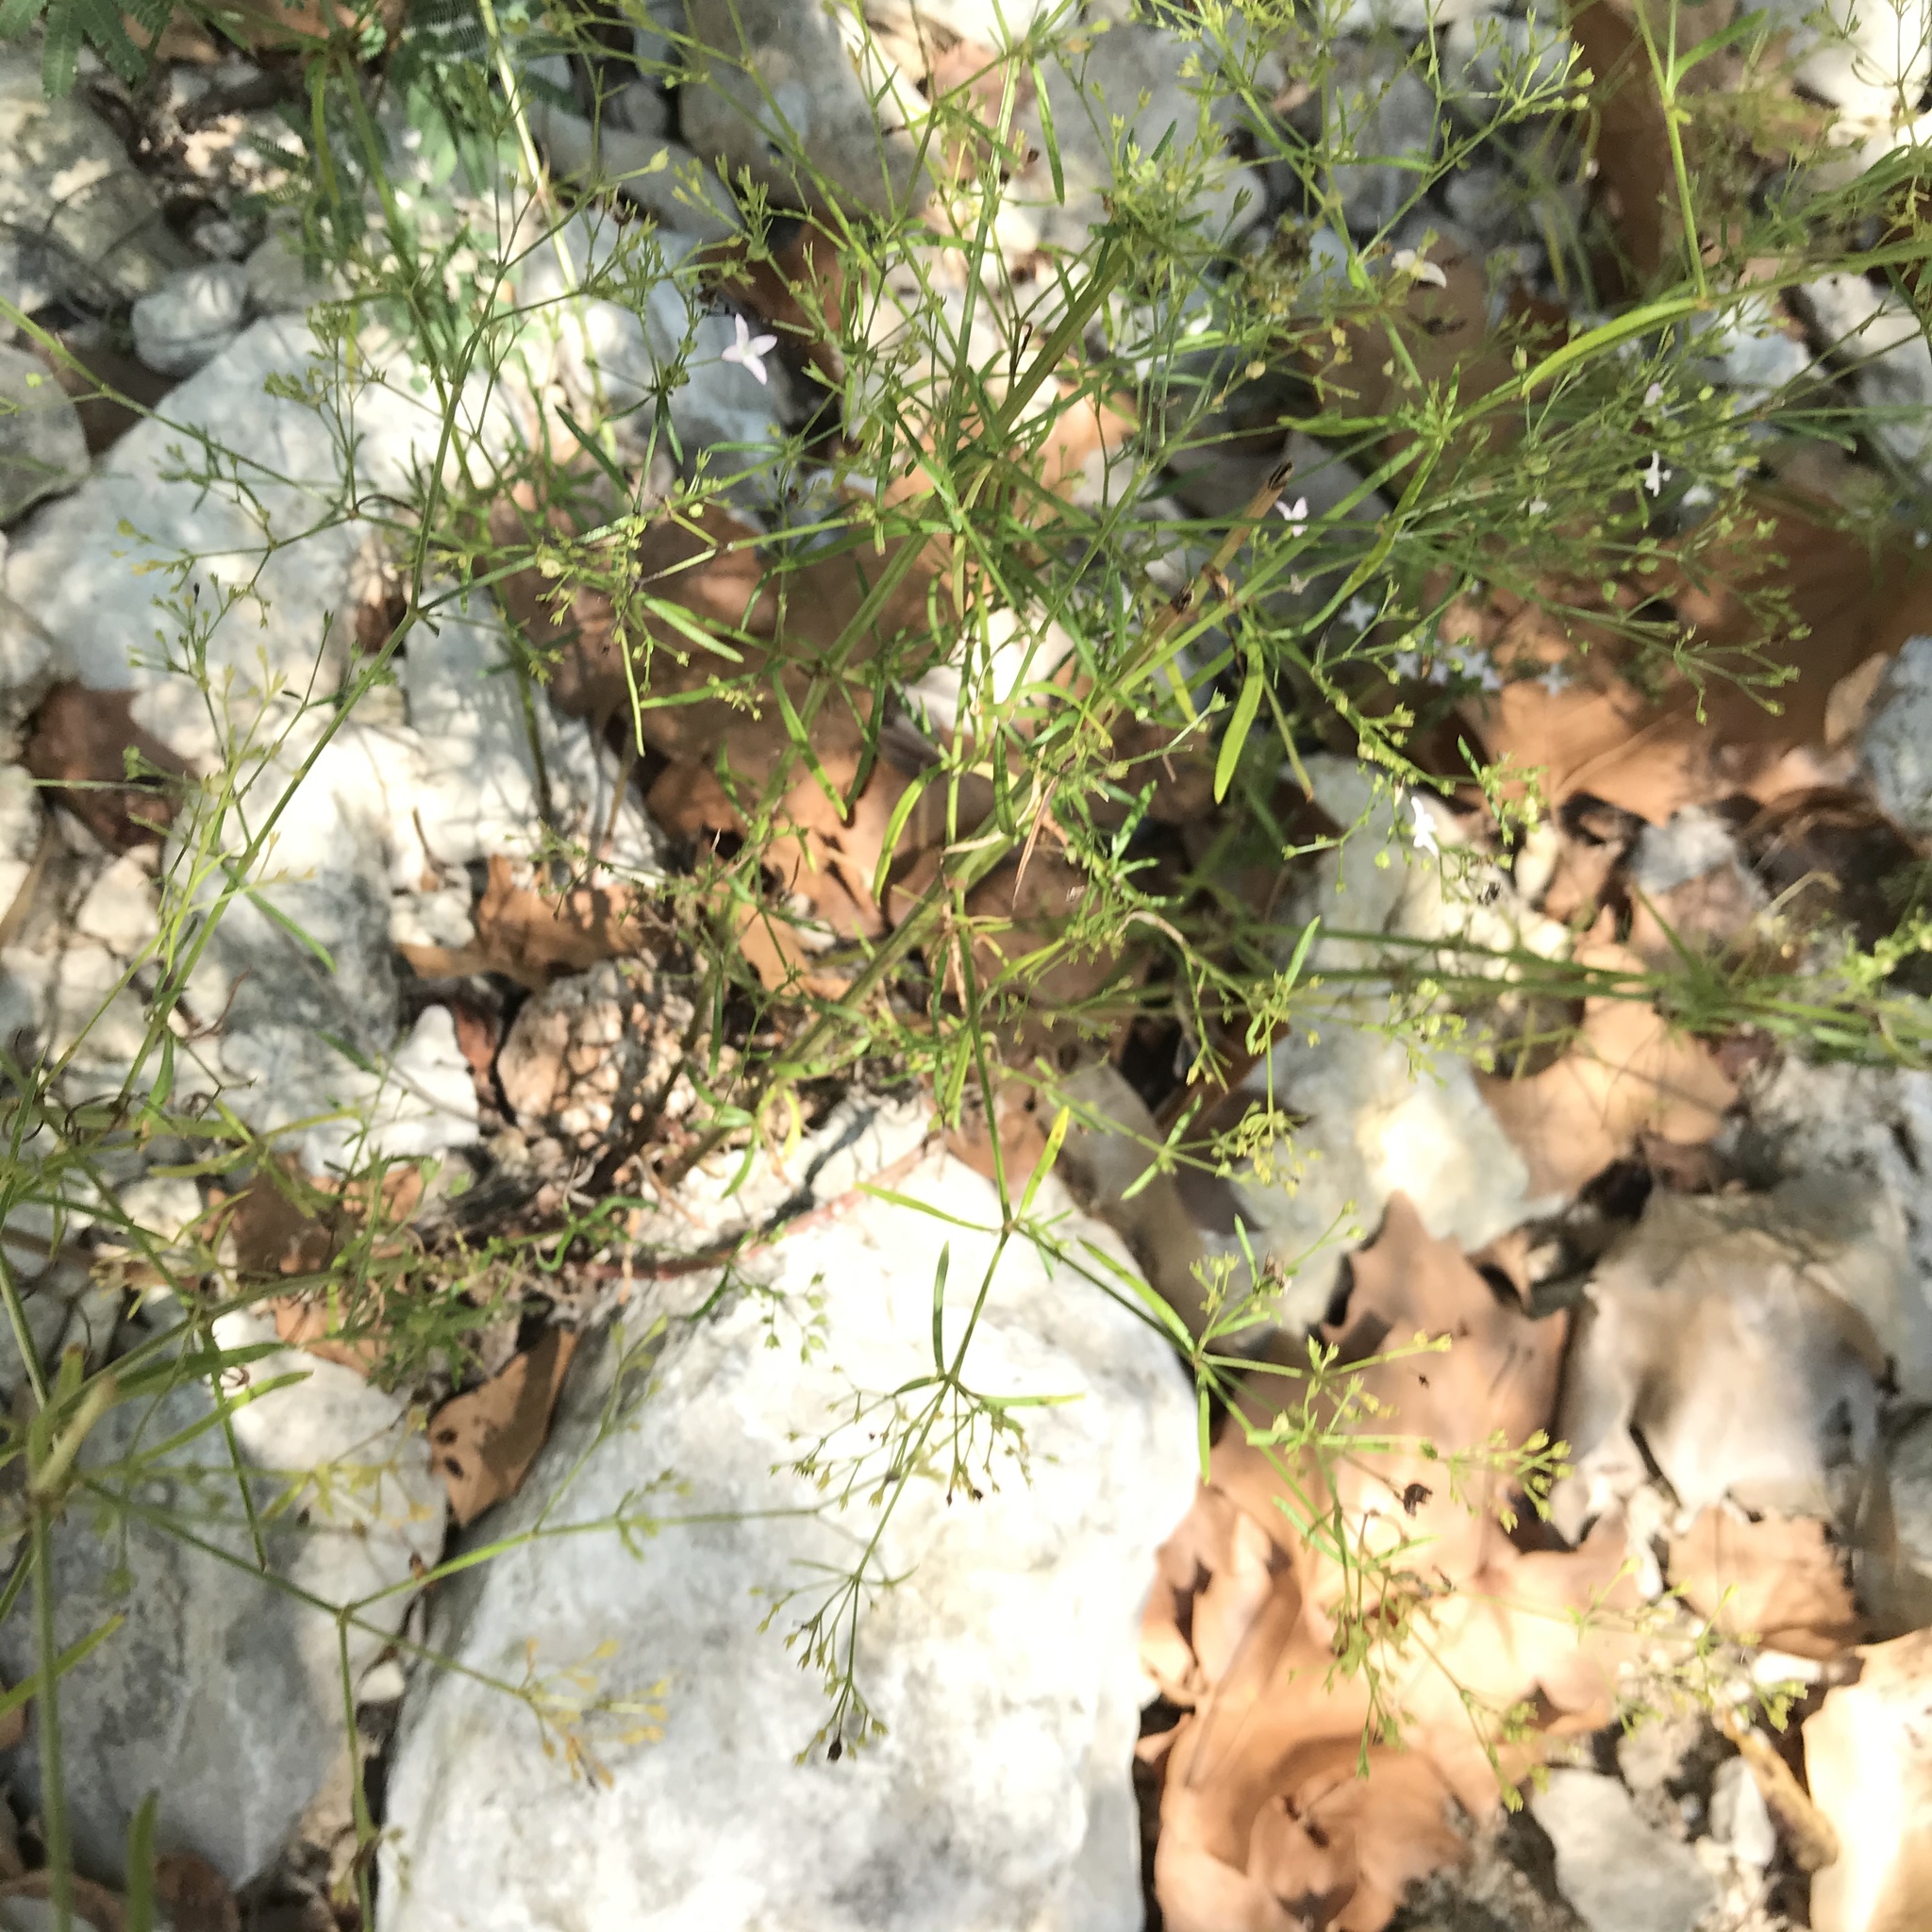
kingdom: Plantae
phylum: Tracheophyta
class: Magnoliopsida
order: Gentianales
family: Rubiaceae
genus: Stenaria
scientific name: Stenaria nigricans
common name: Diamondflowers
